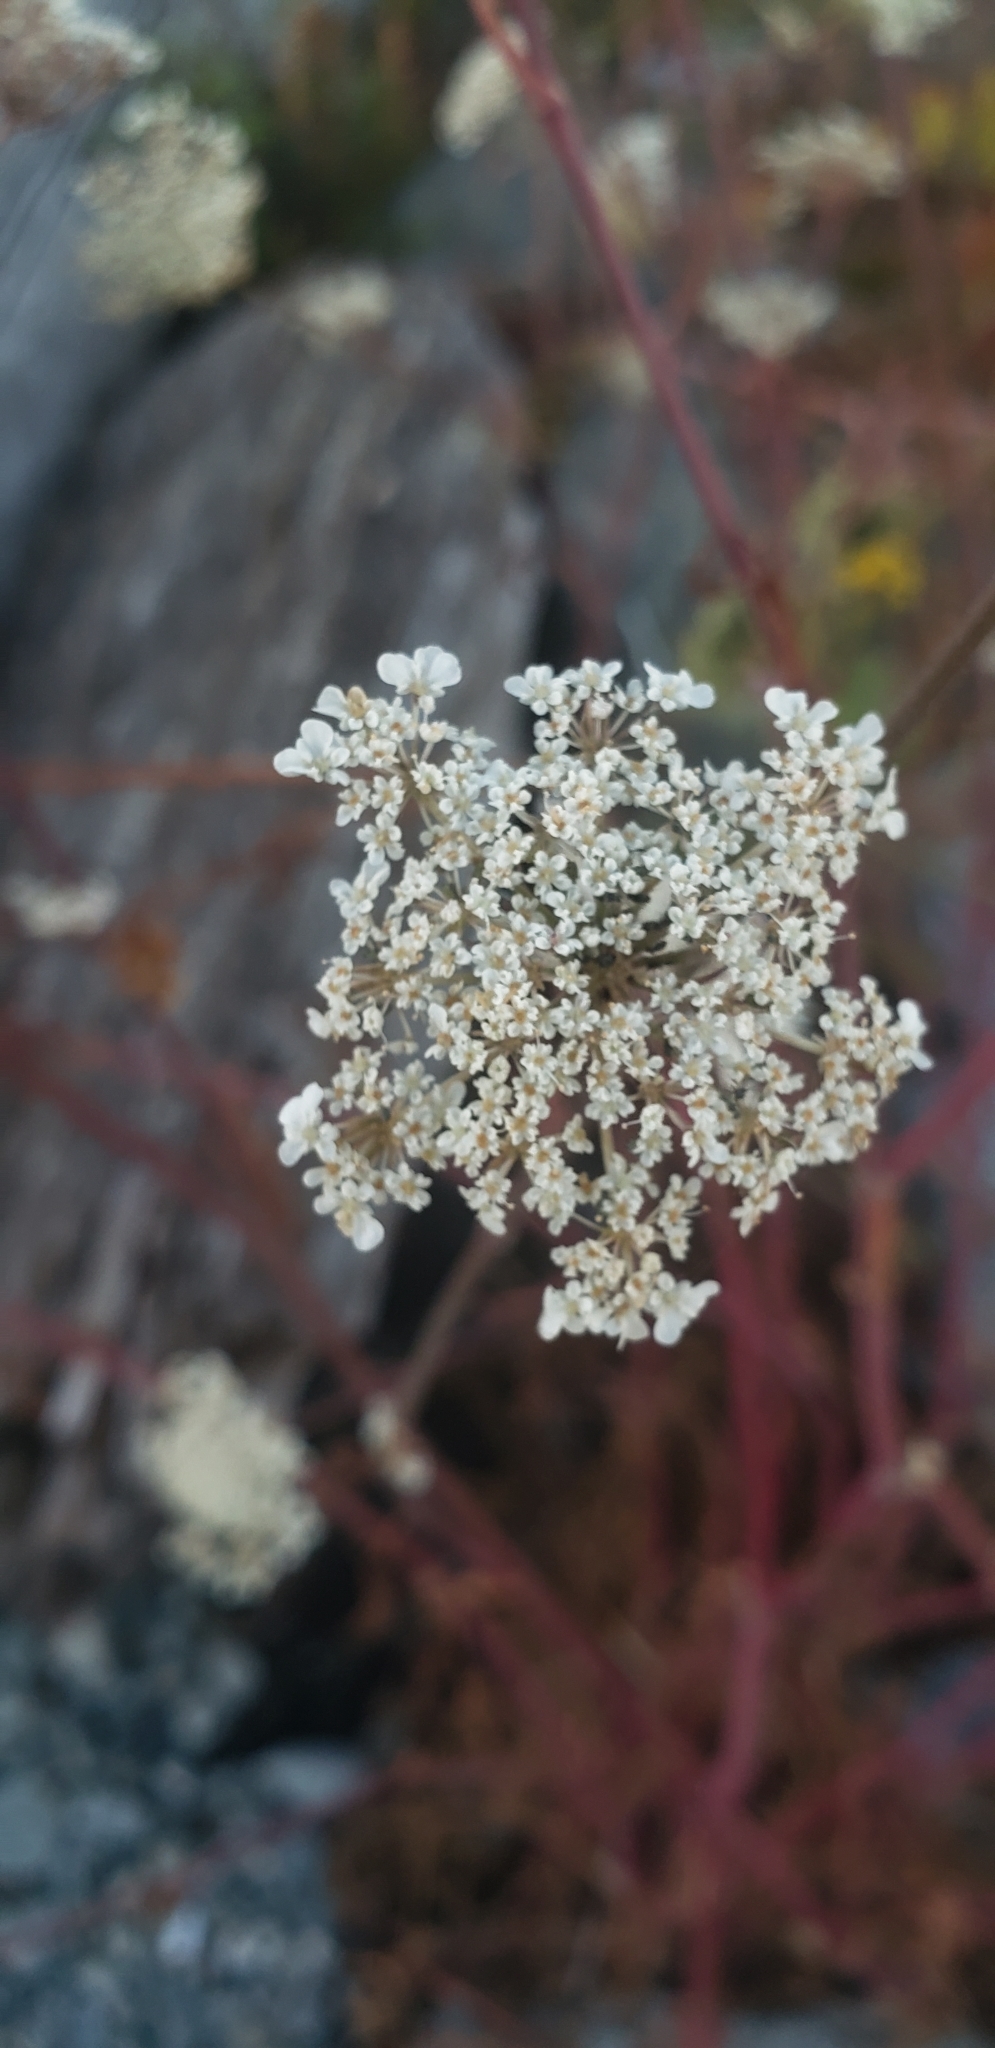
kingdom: Plantae
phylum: Tracheophyta
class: Magnoliopsida
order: Apiales
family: Apiaceae
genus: Daucus
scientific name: Daucus carota
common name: Wild carrot
